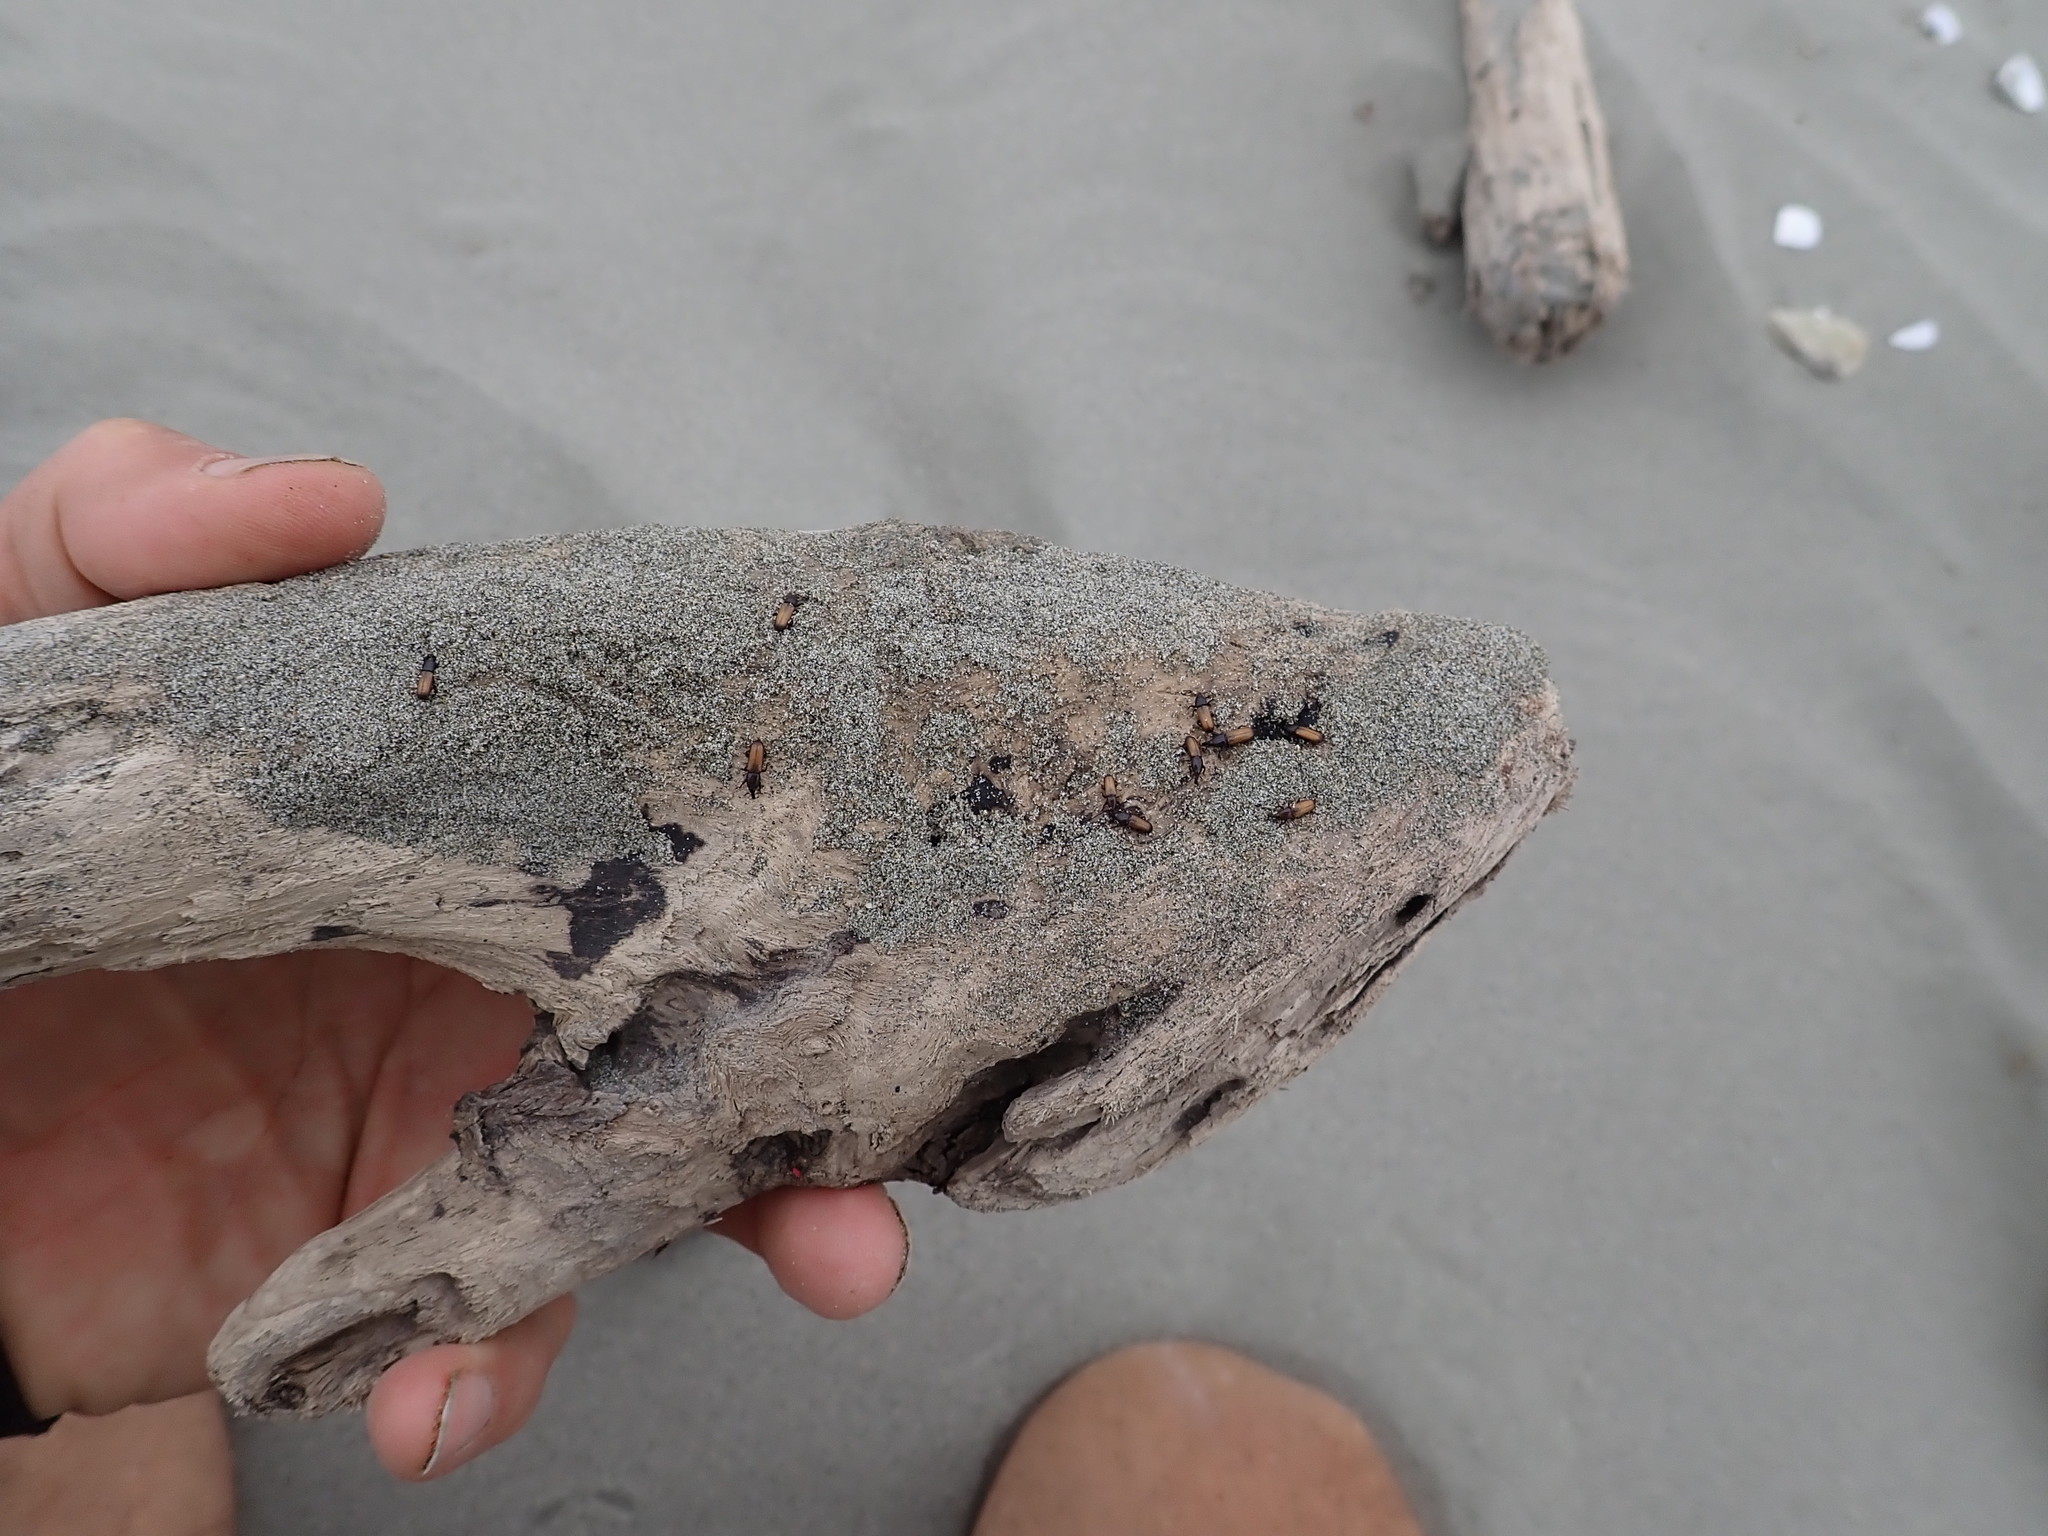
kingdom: Animalia
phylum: Arthropoda
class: Insecta
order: Coleoptera
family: Curculionidae
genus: Mesites
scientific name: Mesites pallidipennis
